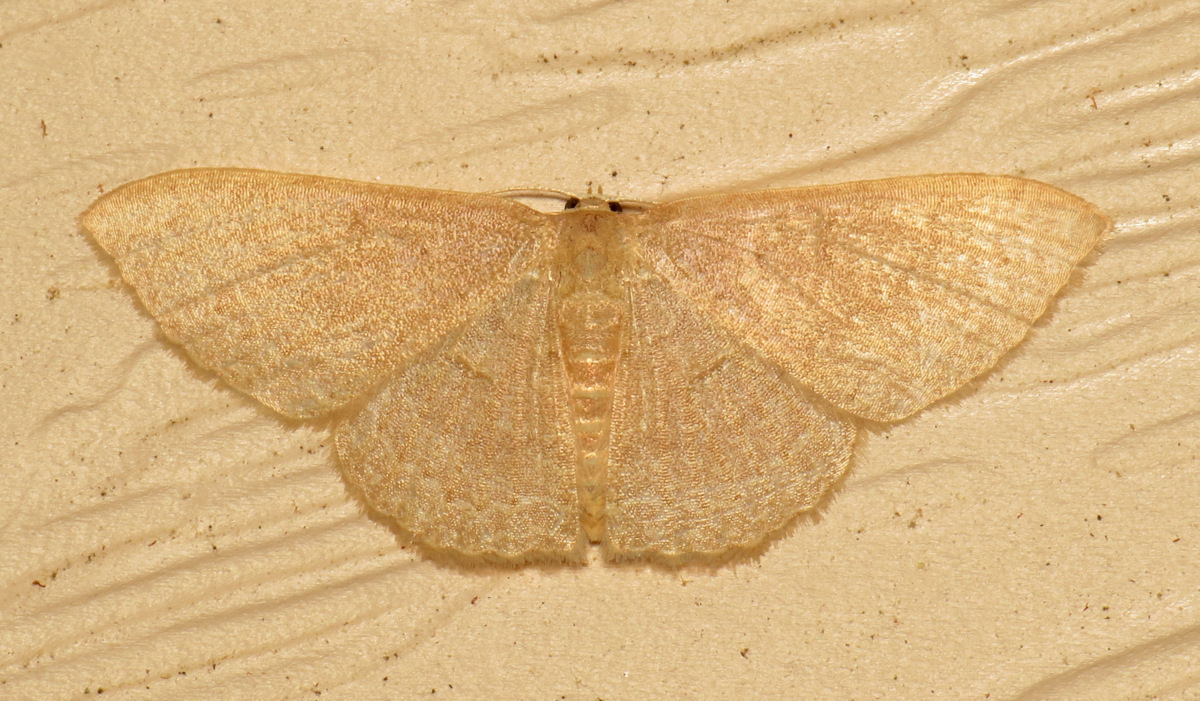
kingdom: Animalia
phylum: Arthropoda
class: Insecta
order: Lepidoptera
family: Geometridae
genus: Pleuroprucha
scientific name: Pleuroprucha insulsaria
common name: Common tan wave
